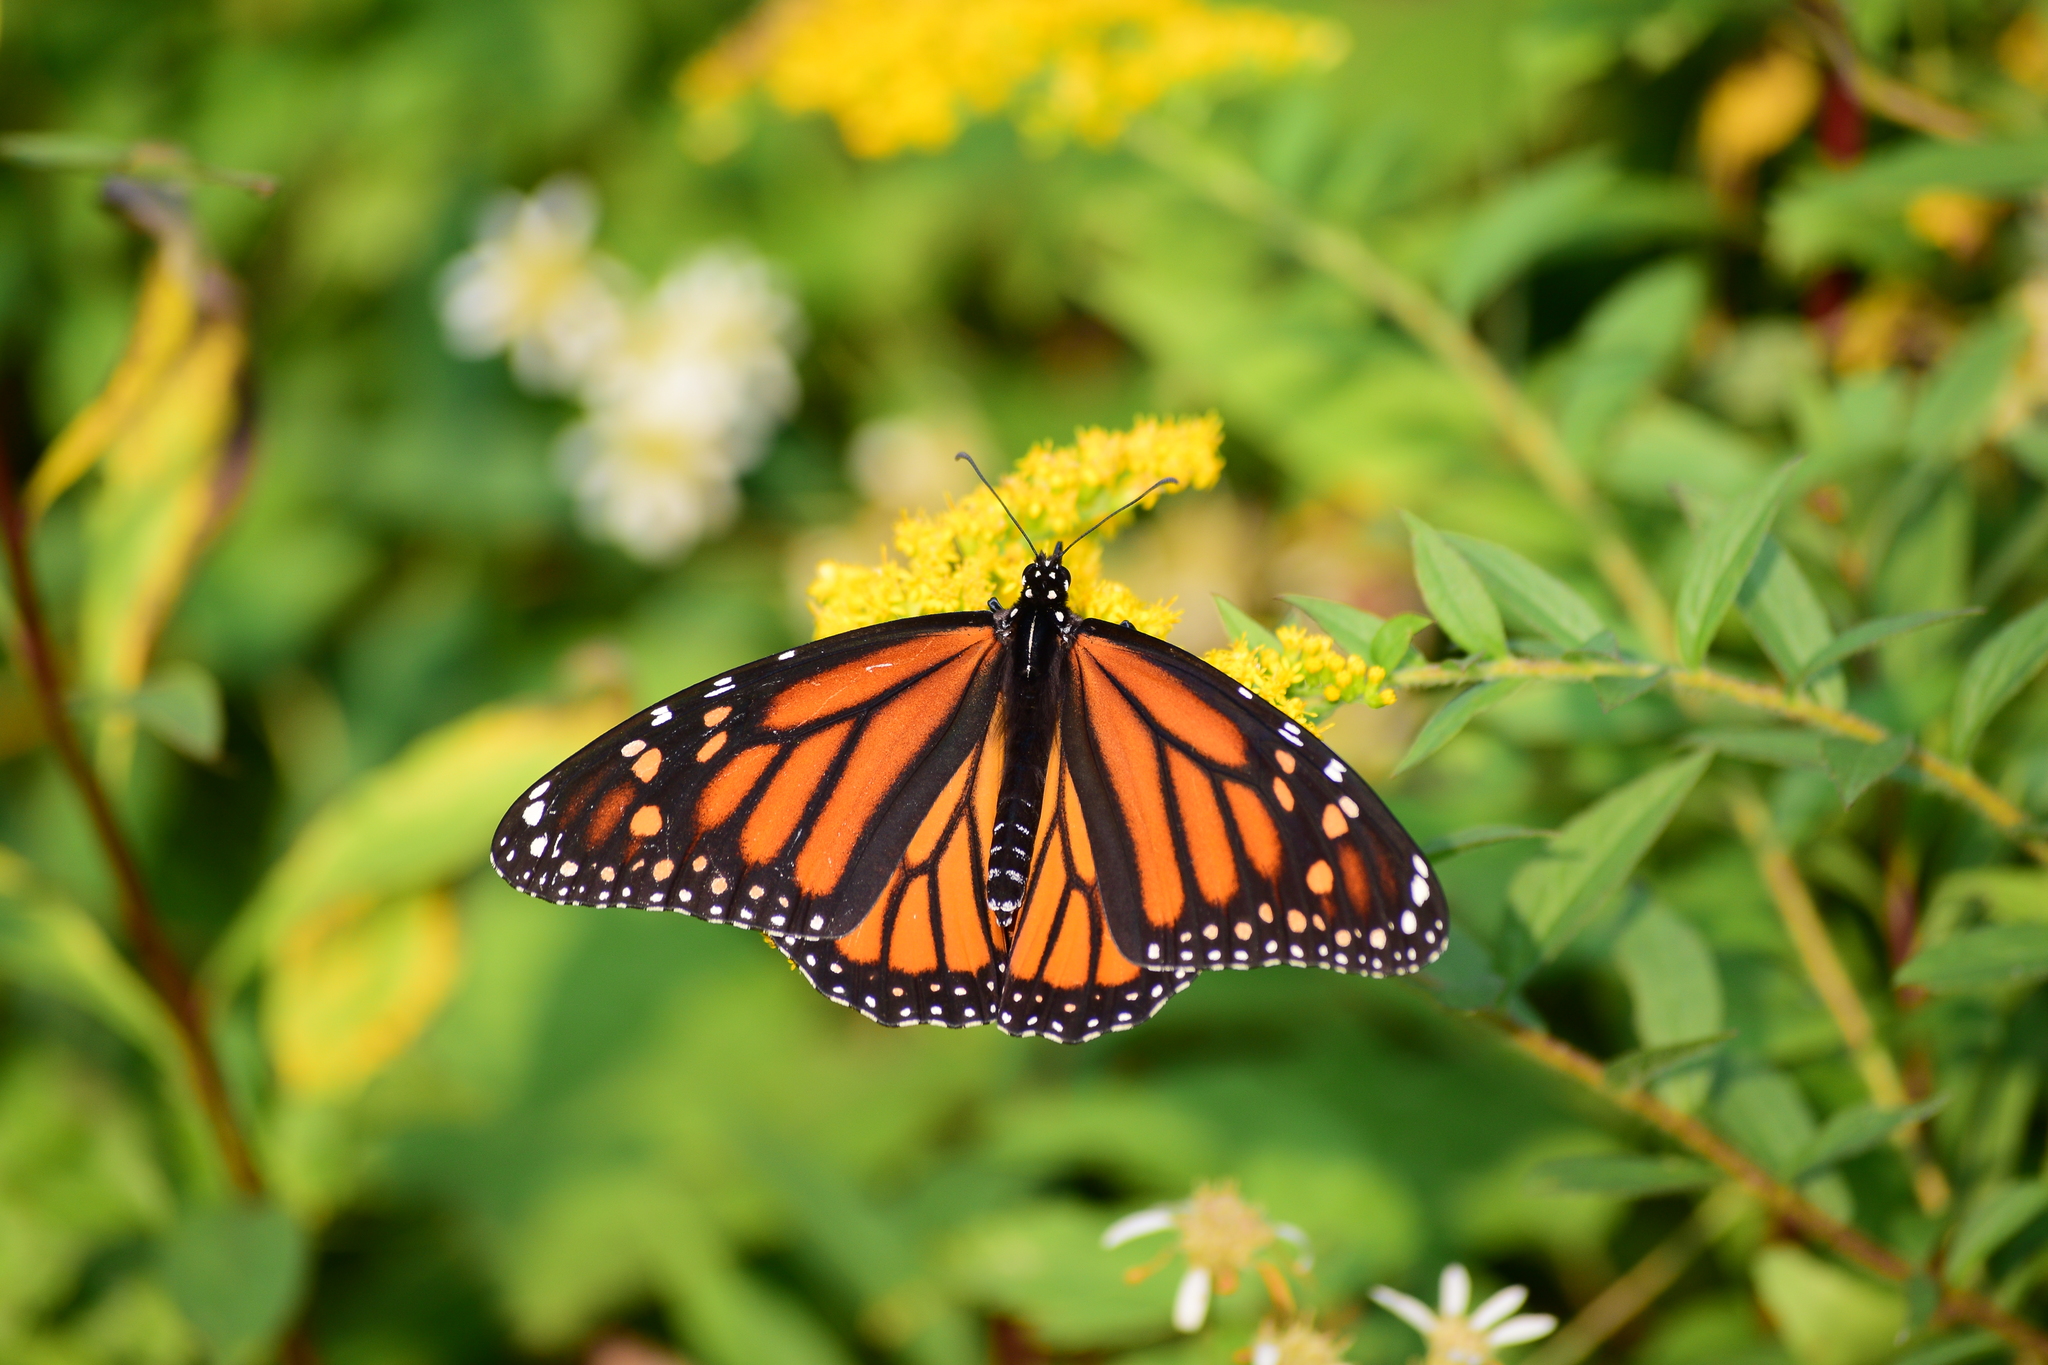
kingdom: Animalia
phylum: Arthropoda
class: Insecta
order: Lepidoptera
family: Nymphalidae
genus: Danaus
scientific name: Danaus plexippus
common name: Monarch
